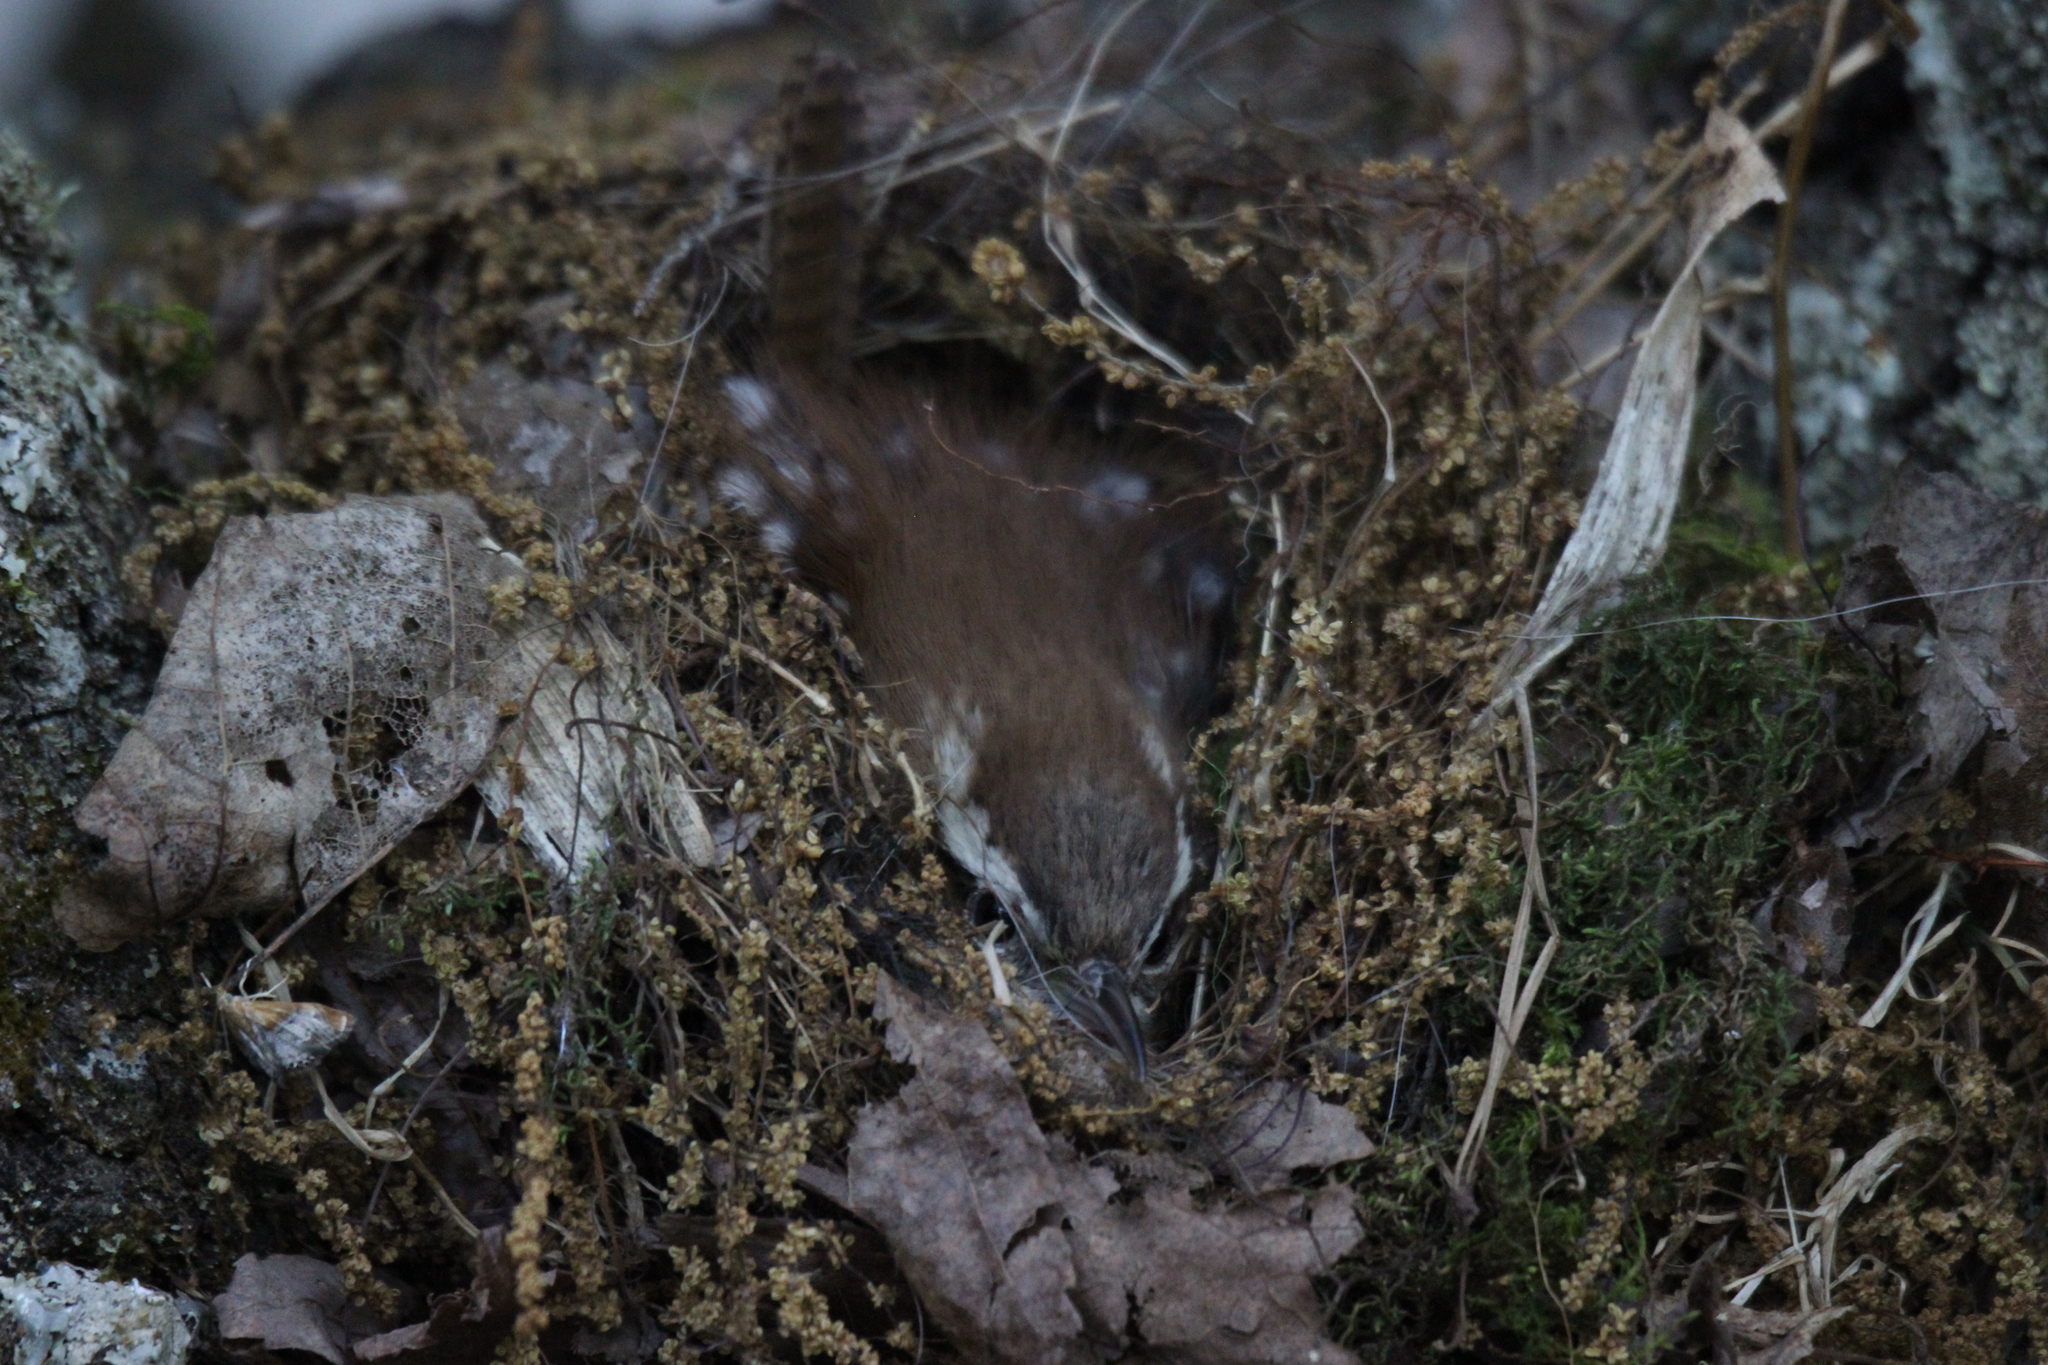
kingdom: Animalia
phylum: Chordata
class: Aves
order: Passeriformes
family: Troglodytidae
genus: Thryothorus
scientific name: Thryothorus ludovicianus
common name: Carolina wren
